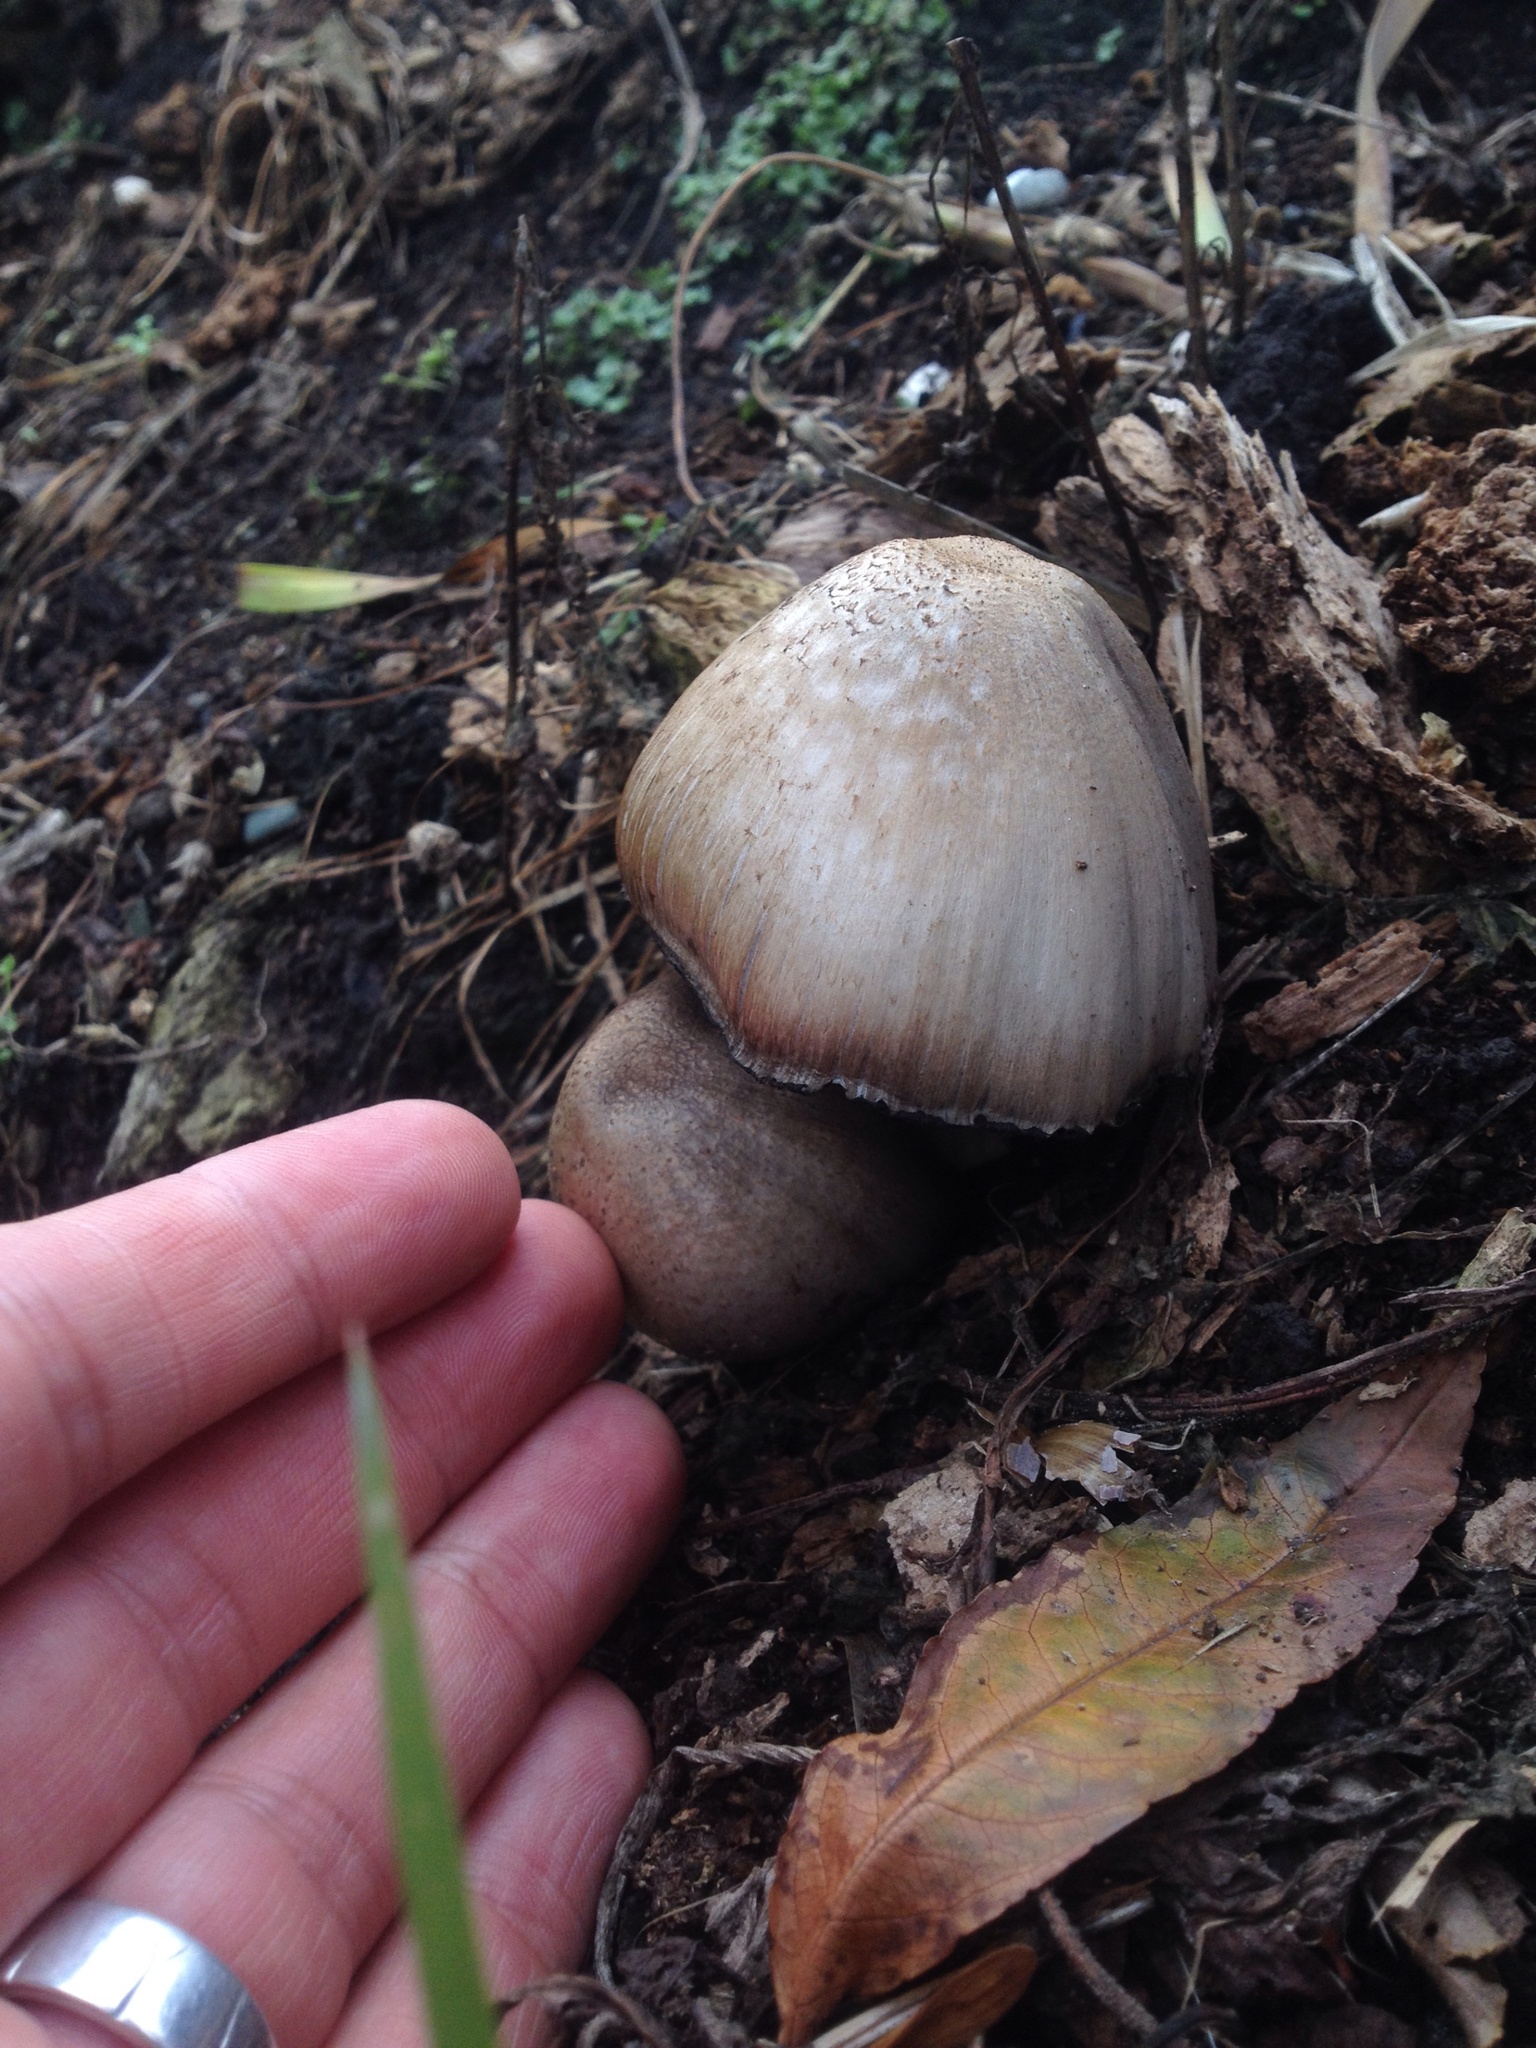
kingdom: Fungi
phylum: Basidiomycota
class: Agaricomycetes
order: Agaricales
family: Psathyrellaceae
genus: Coprinopsis
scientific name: Coprinopsis atramentaria
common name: Common ink-cap
